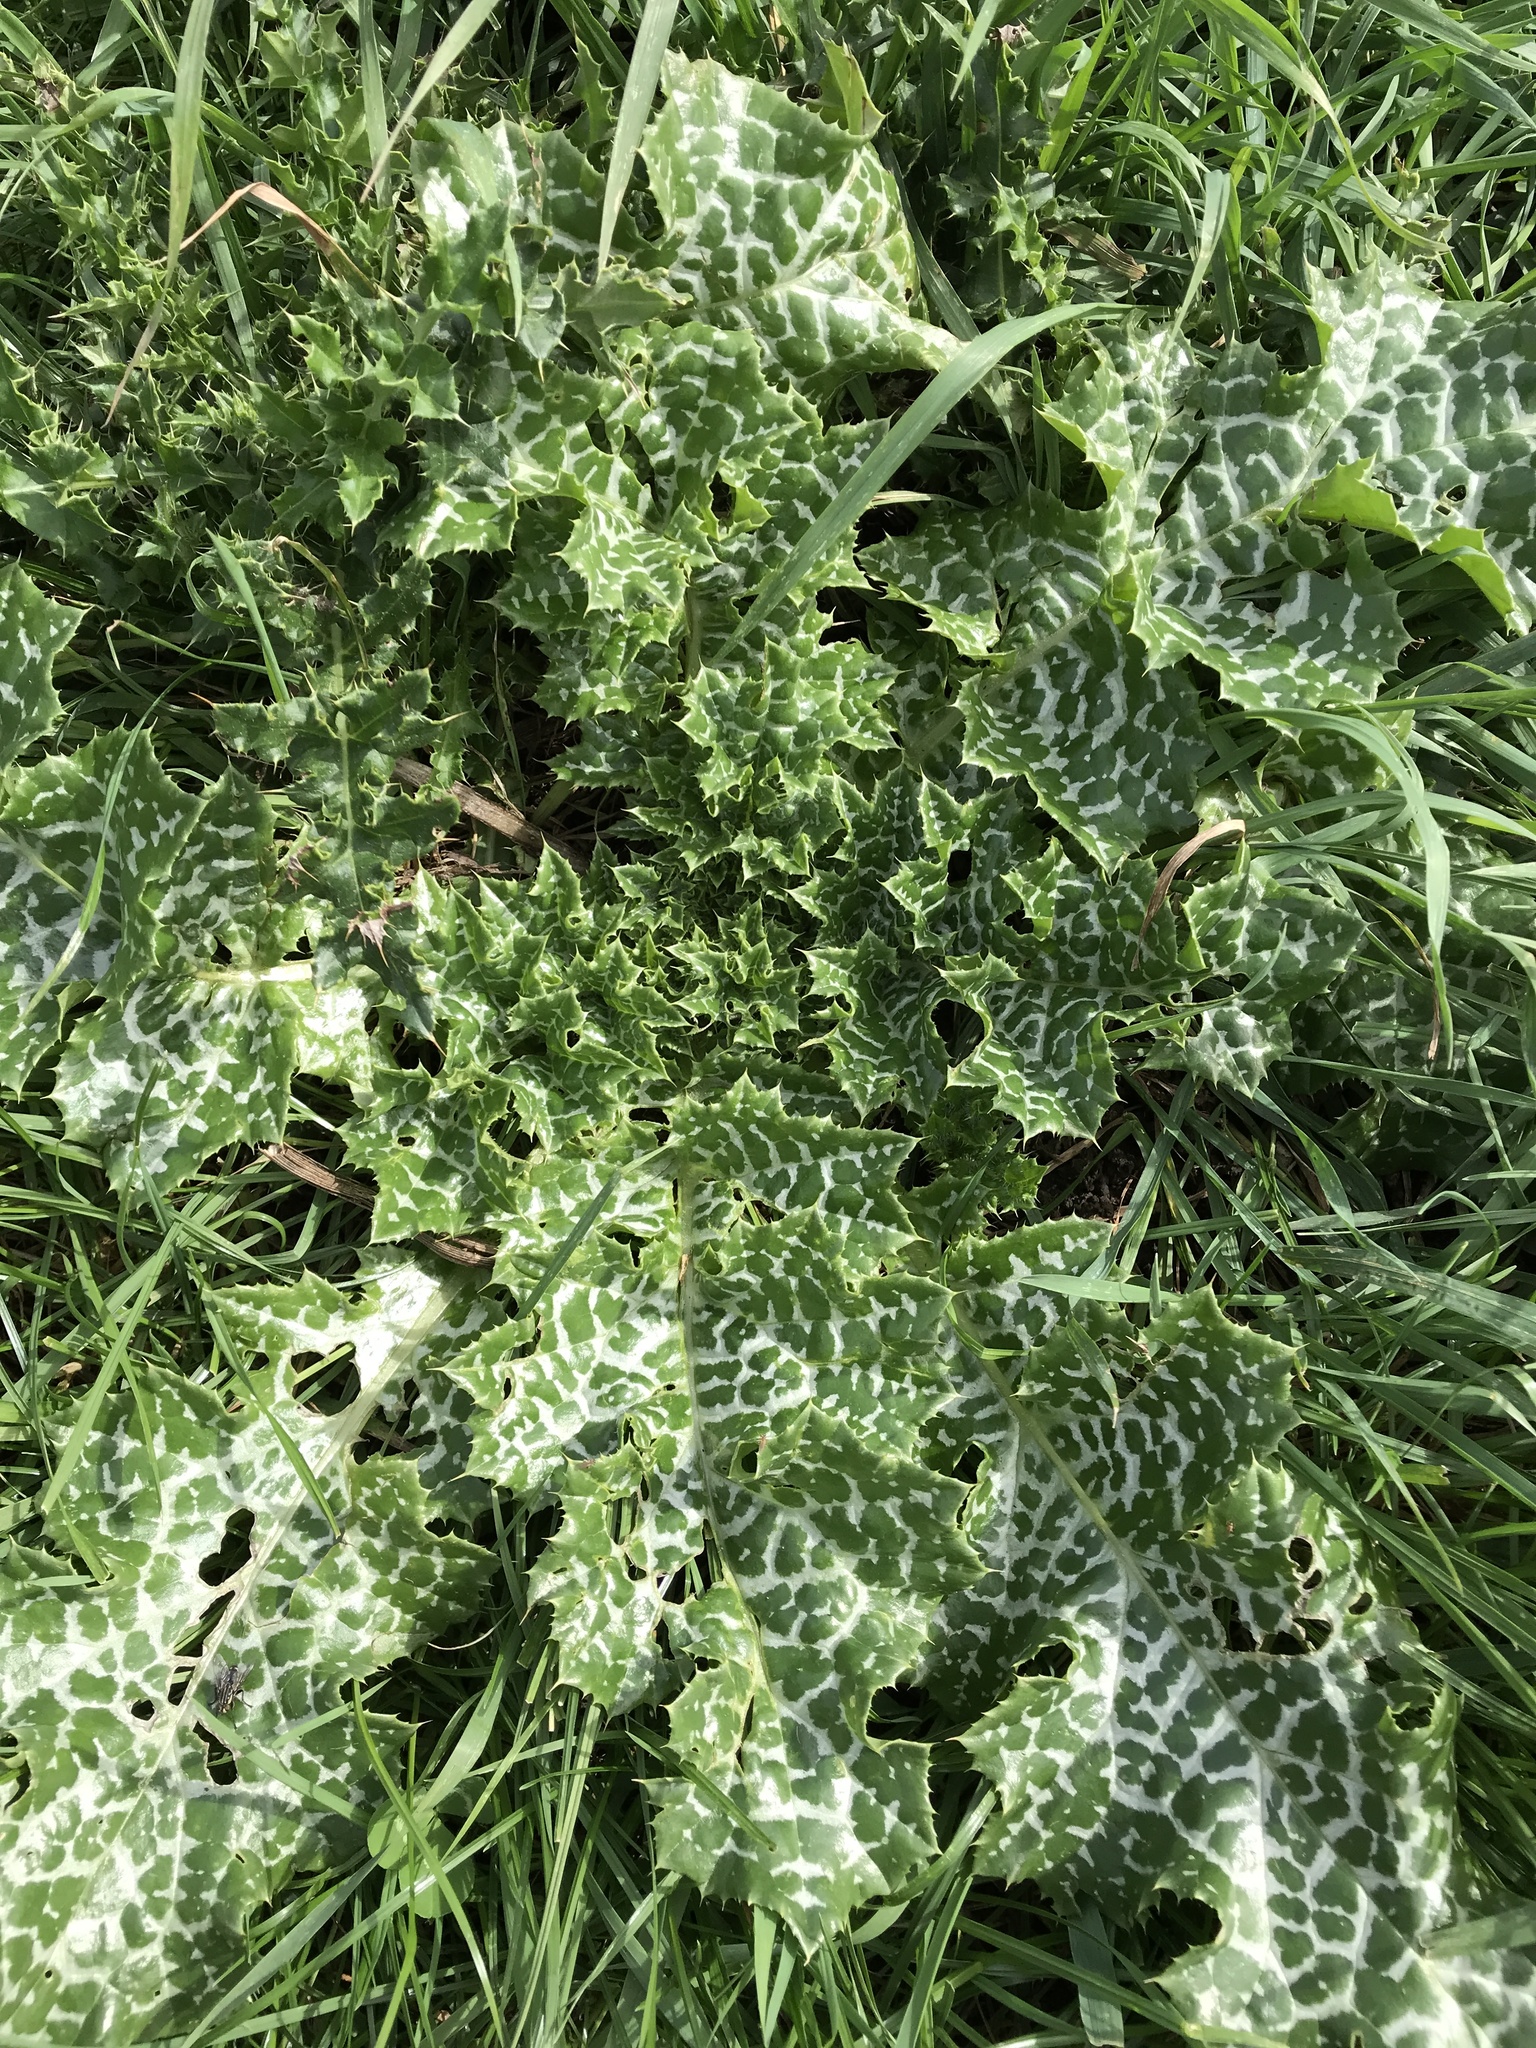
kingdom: Plantae
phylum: Tracheophyta
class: Magnoliopsida
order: Asterales
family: Asteraceae
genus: Silybum
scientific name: Silybum marianum
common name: Milk thistle
